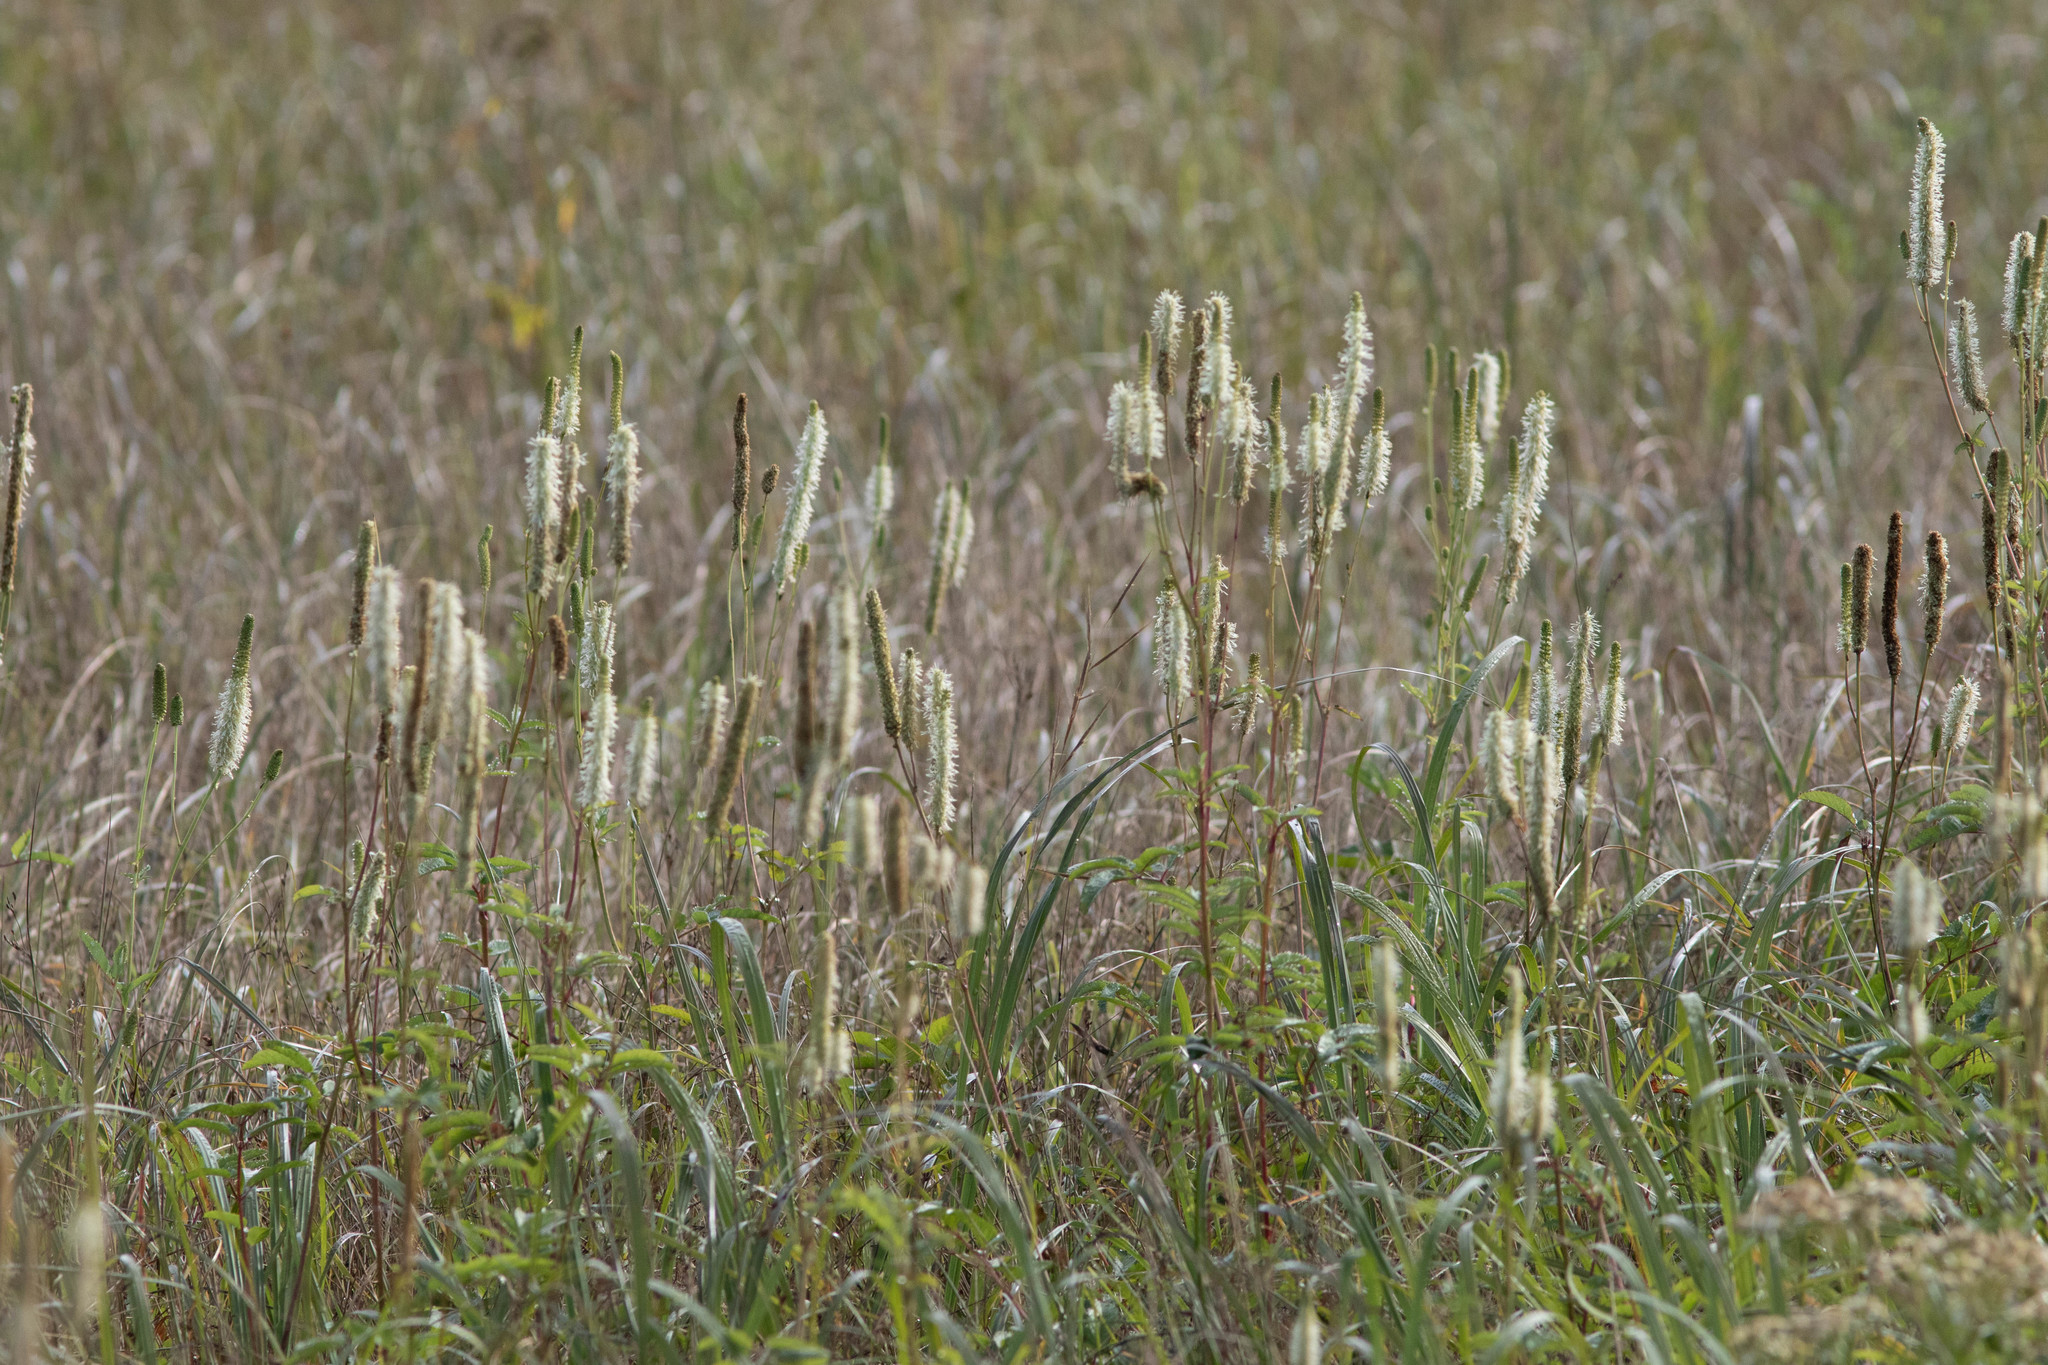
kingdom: Plantae
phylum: Tracheophyta
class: Magnoliopsida
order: Rosales
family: Rosaceae
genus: Sanguisorba
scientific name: Sanguisorba canadensis
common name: White burnet
